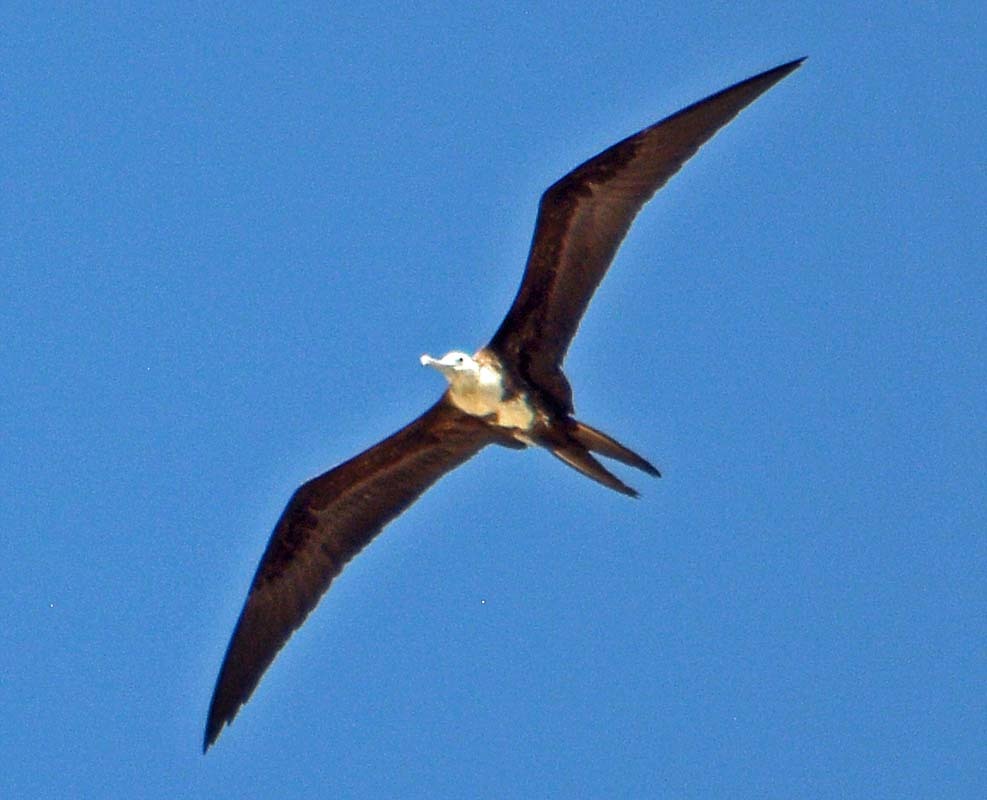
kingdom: Animalia
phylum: Chordata
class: Aves
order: Suliformes
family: Fregatidae
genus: Fregata
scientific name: Fregata magnificens
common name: Magnificent frigatebird
